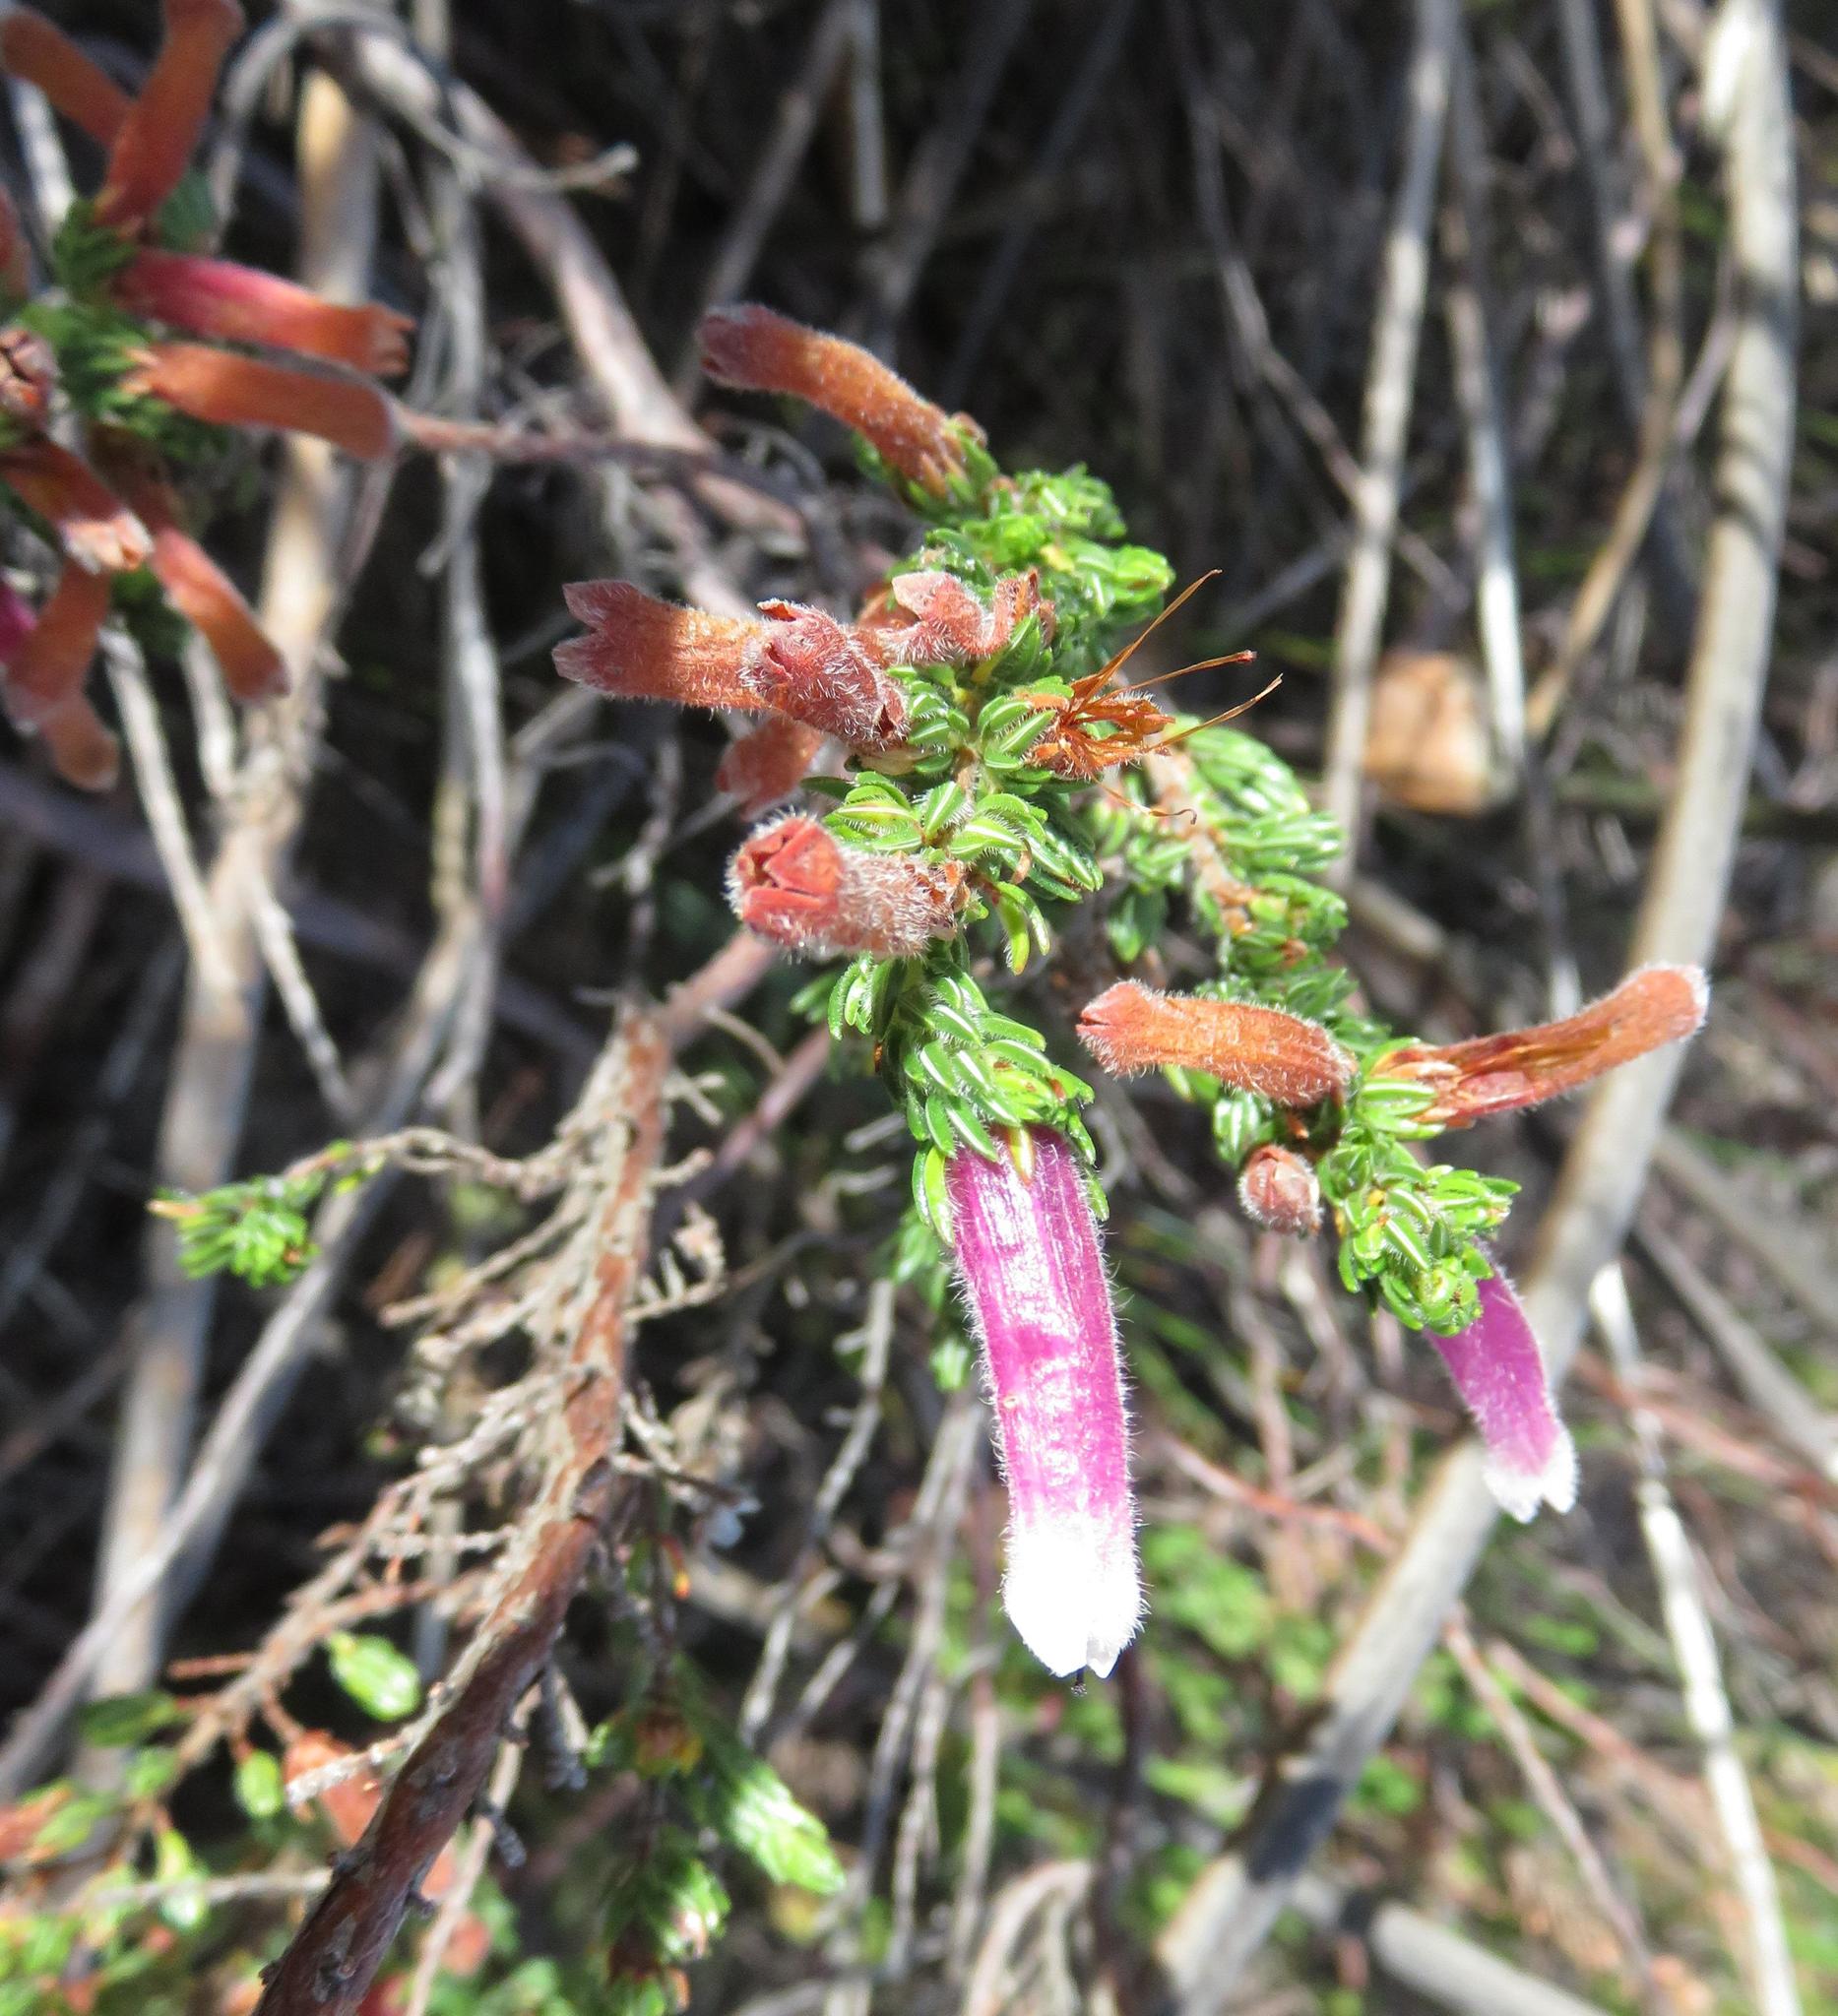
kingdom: Plantae
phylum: Tracheophyta
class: Magnoliopsida
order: Ericales
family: Ericaceae
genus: Erica
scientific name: Erica macowanii
